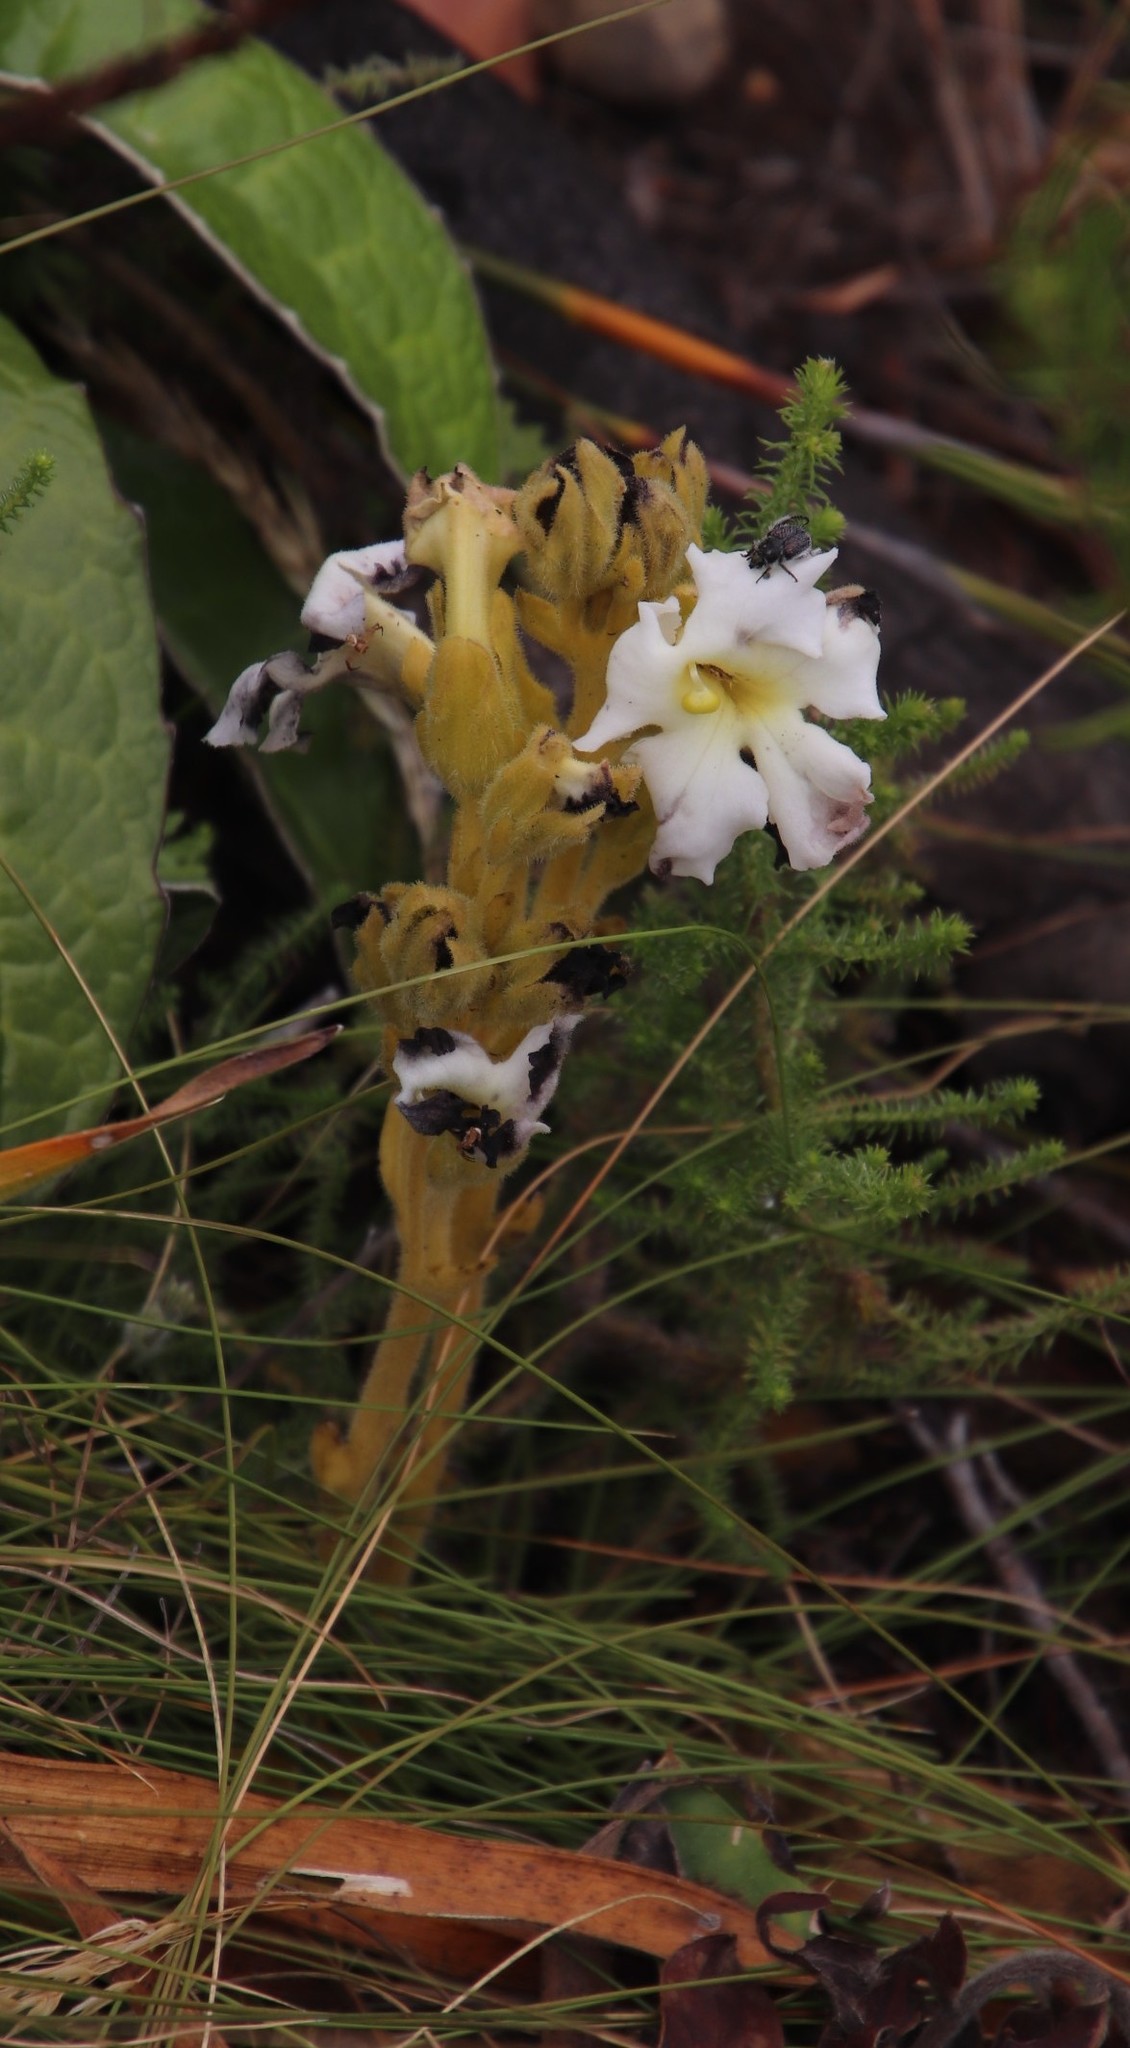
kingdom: Plantae
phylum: Tracheophyta
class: Magnoliopsida
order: Lamiales
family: Orobanchaceae
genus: Harveya
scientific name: Harveya capensis
